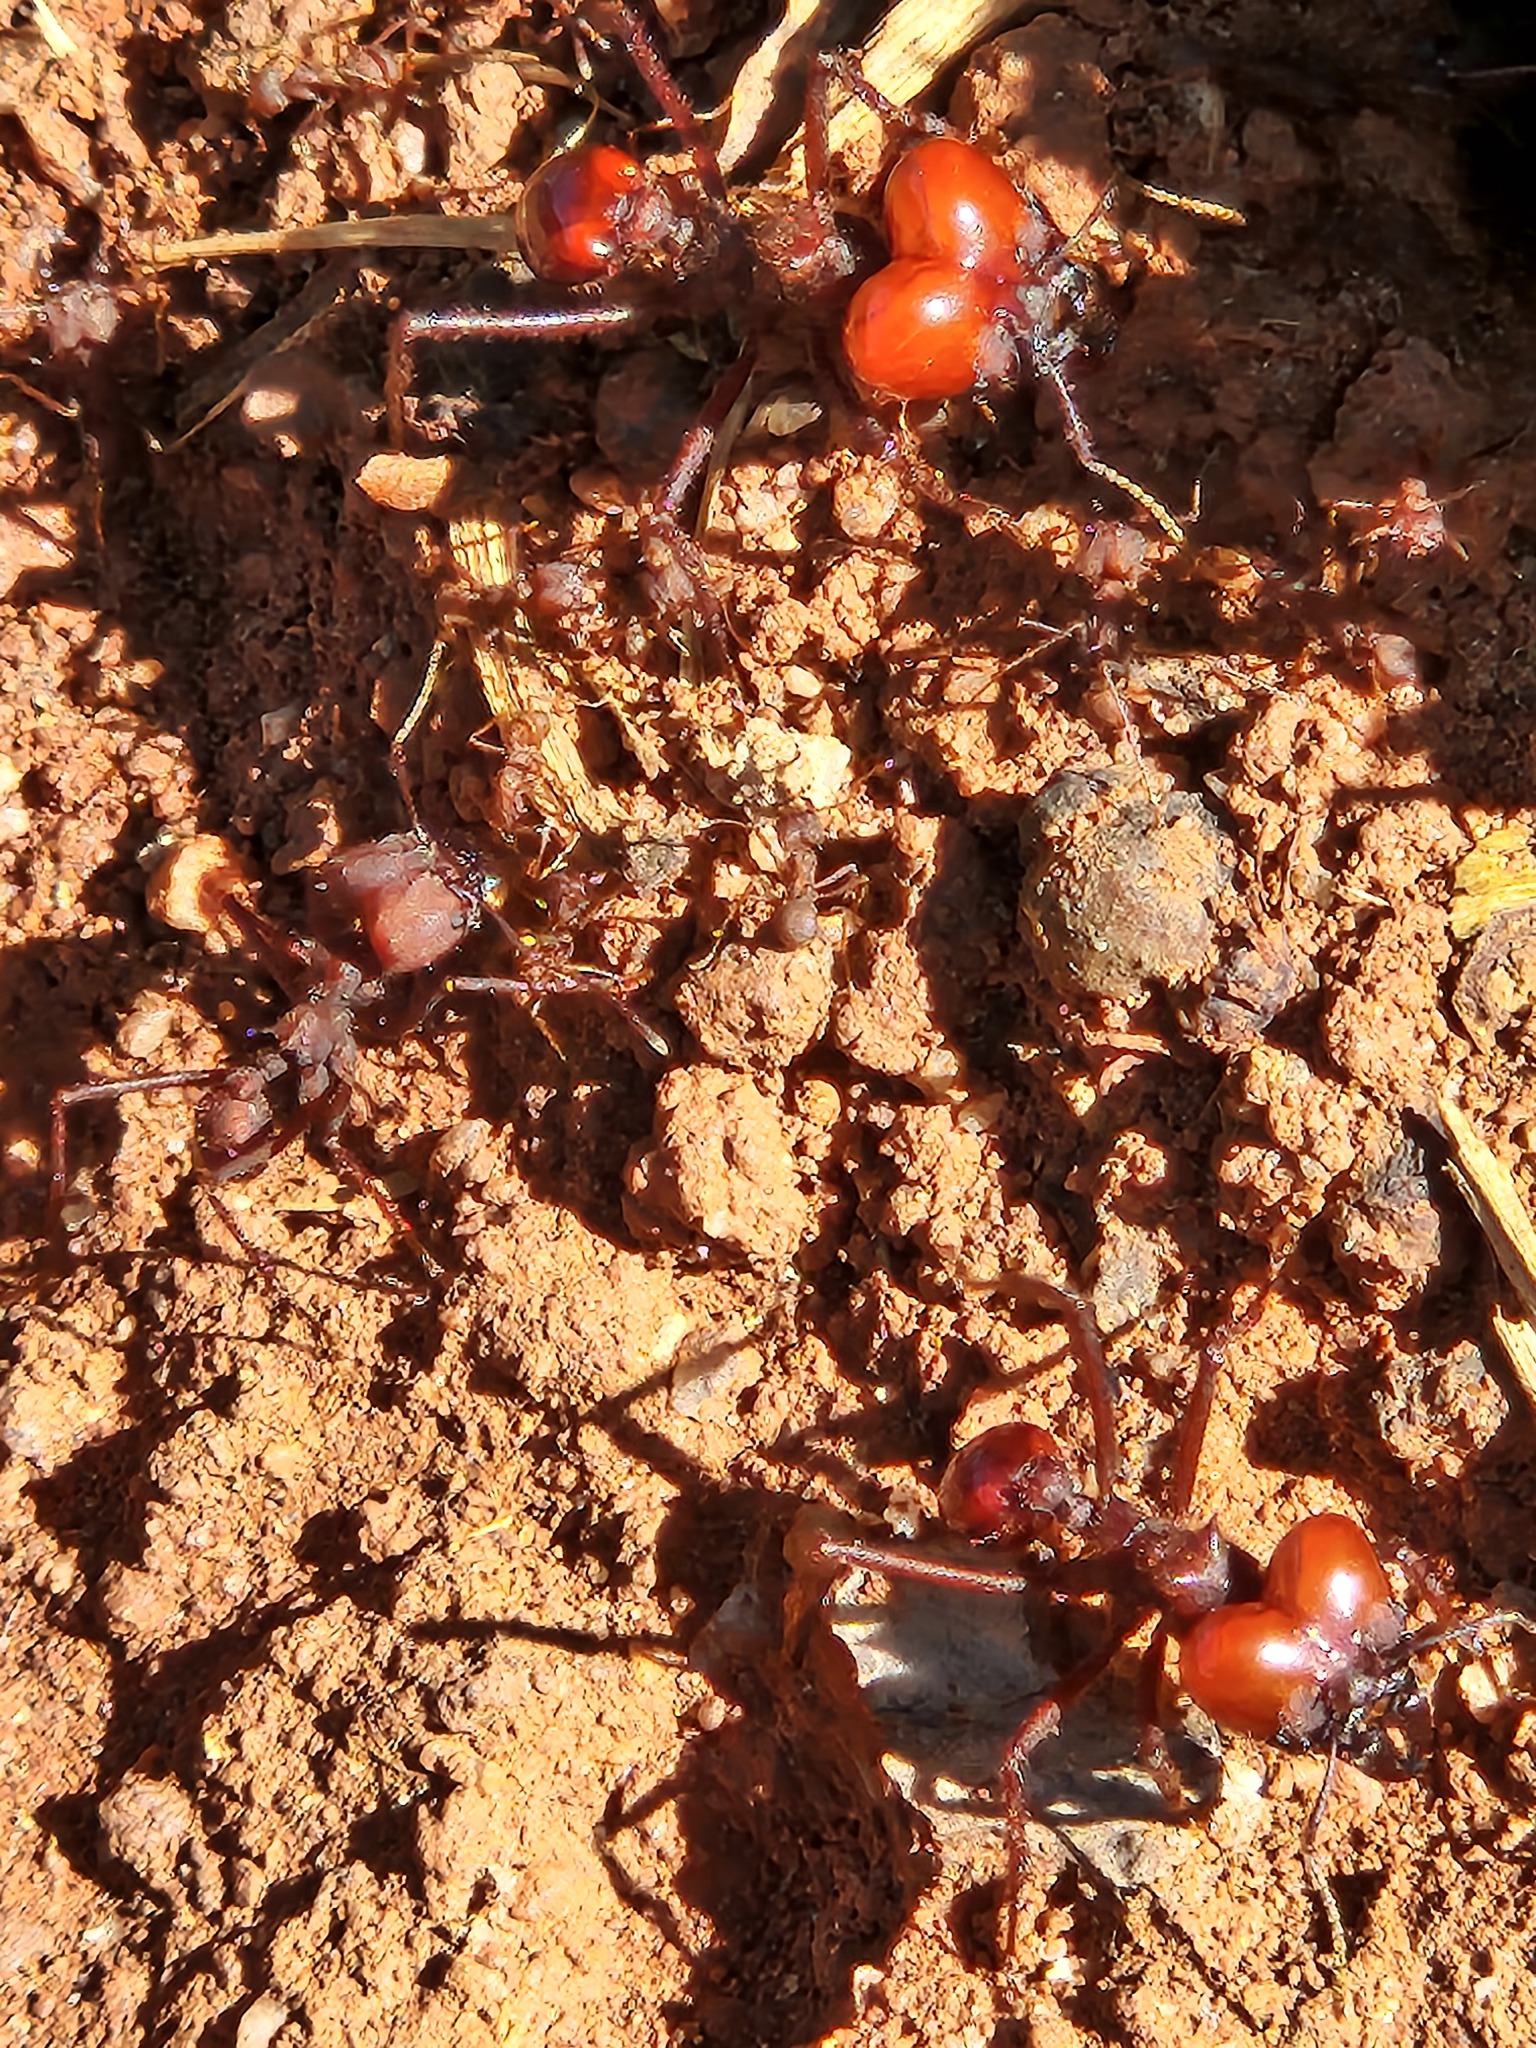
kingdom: Animalia
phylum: Arthropoda
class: Insecta
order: Hymenoptera
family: Formicidae
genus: Atta
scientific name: Atta laevigata
